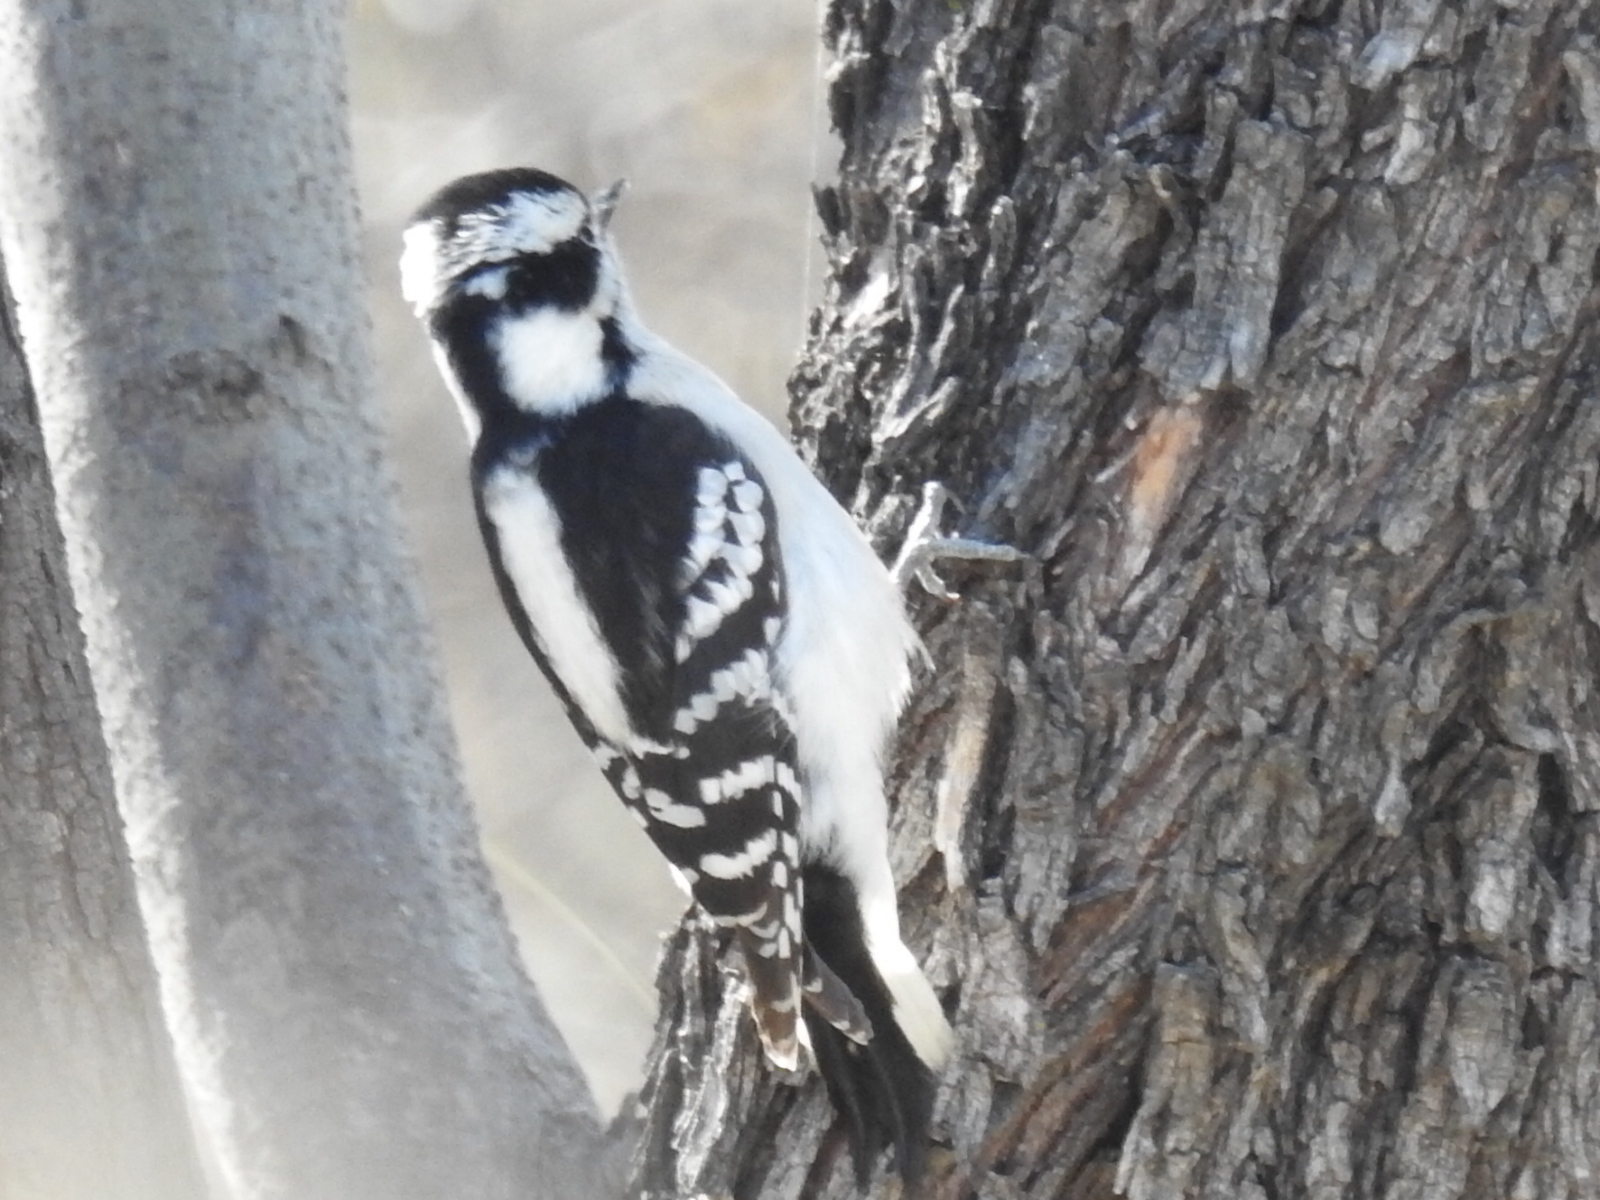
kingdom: Animalia
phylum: Chordata
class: Aves
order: Piciformes
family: Picidae
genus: Dryobates
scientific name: Dryobates pubescens
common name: Downy woodpecker
